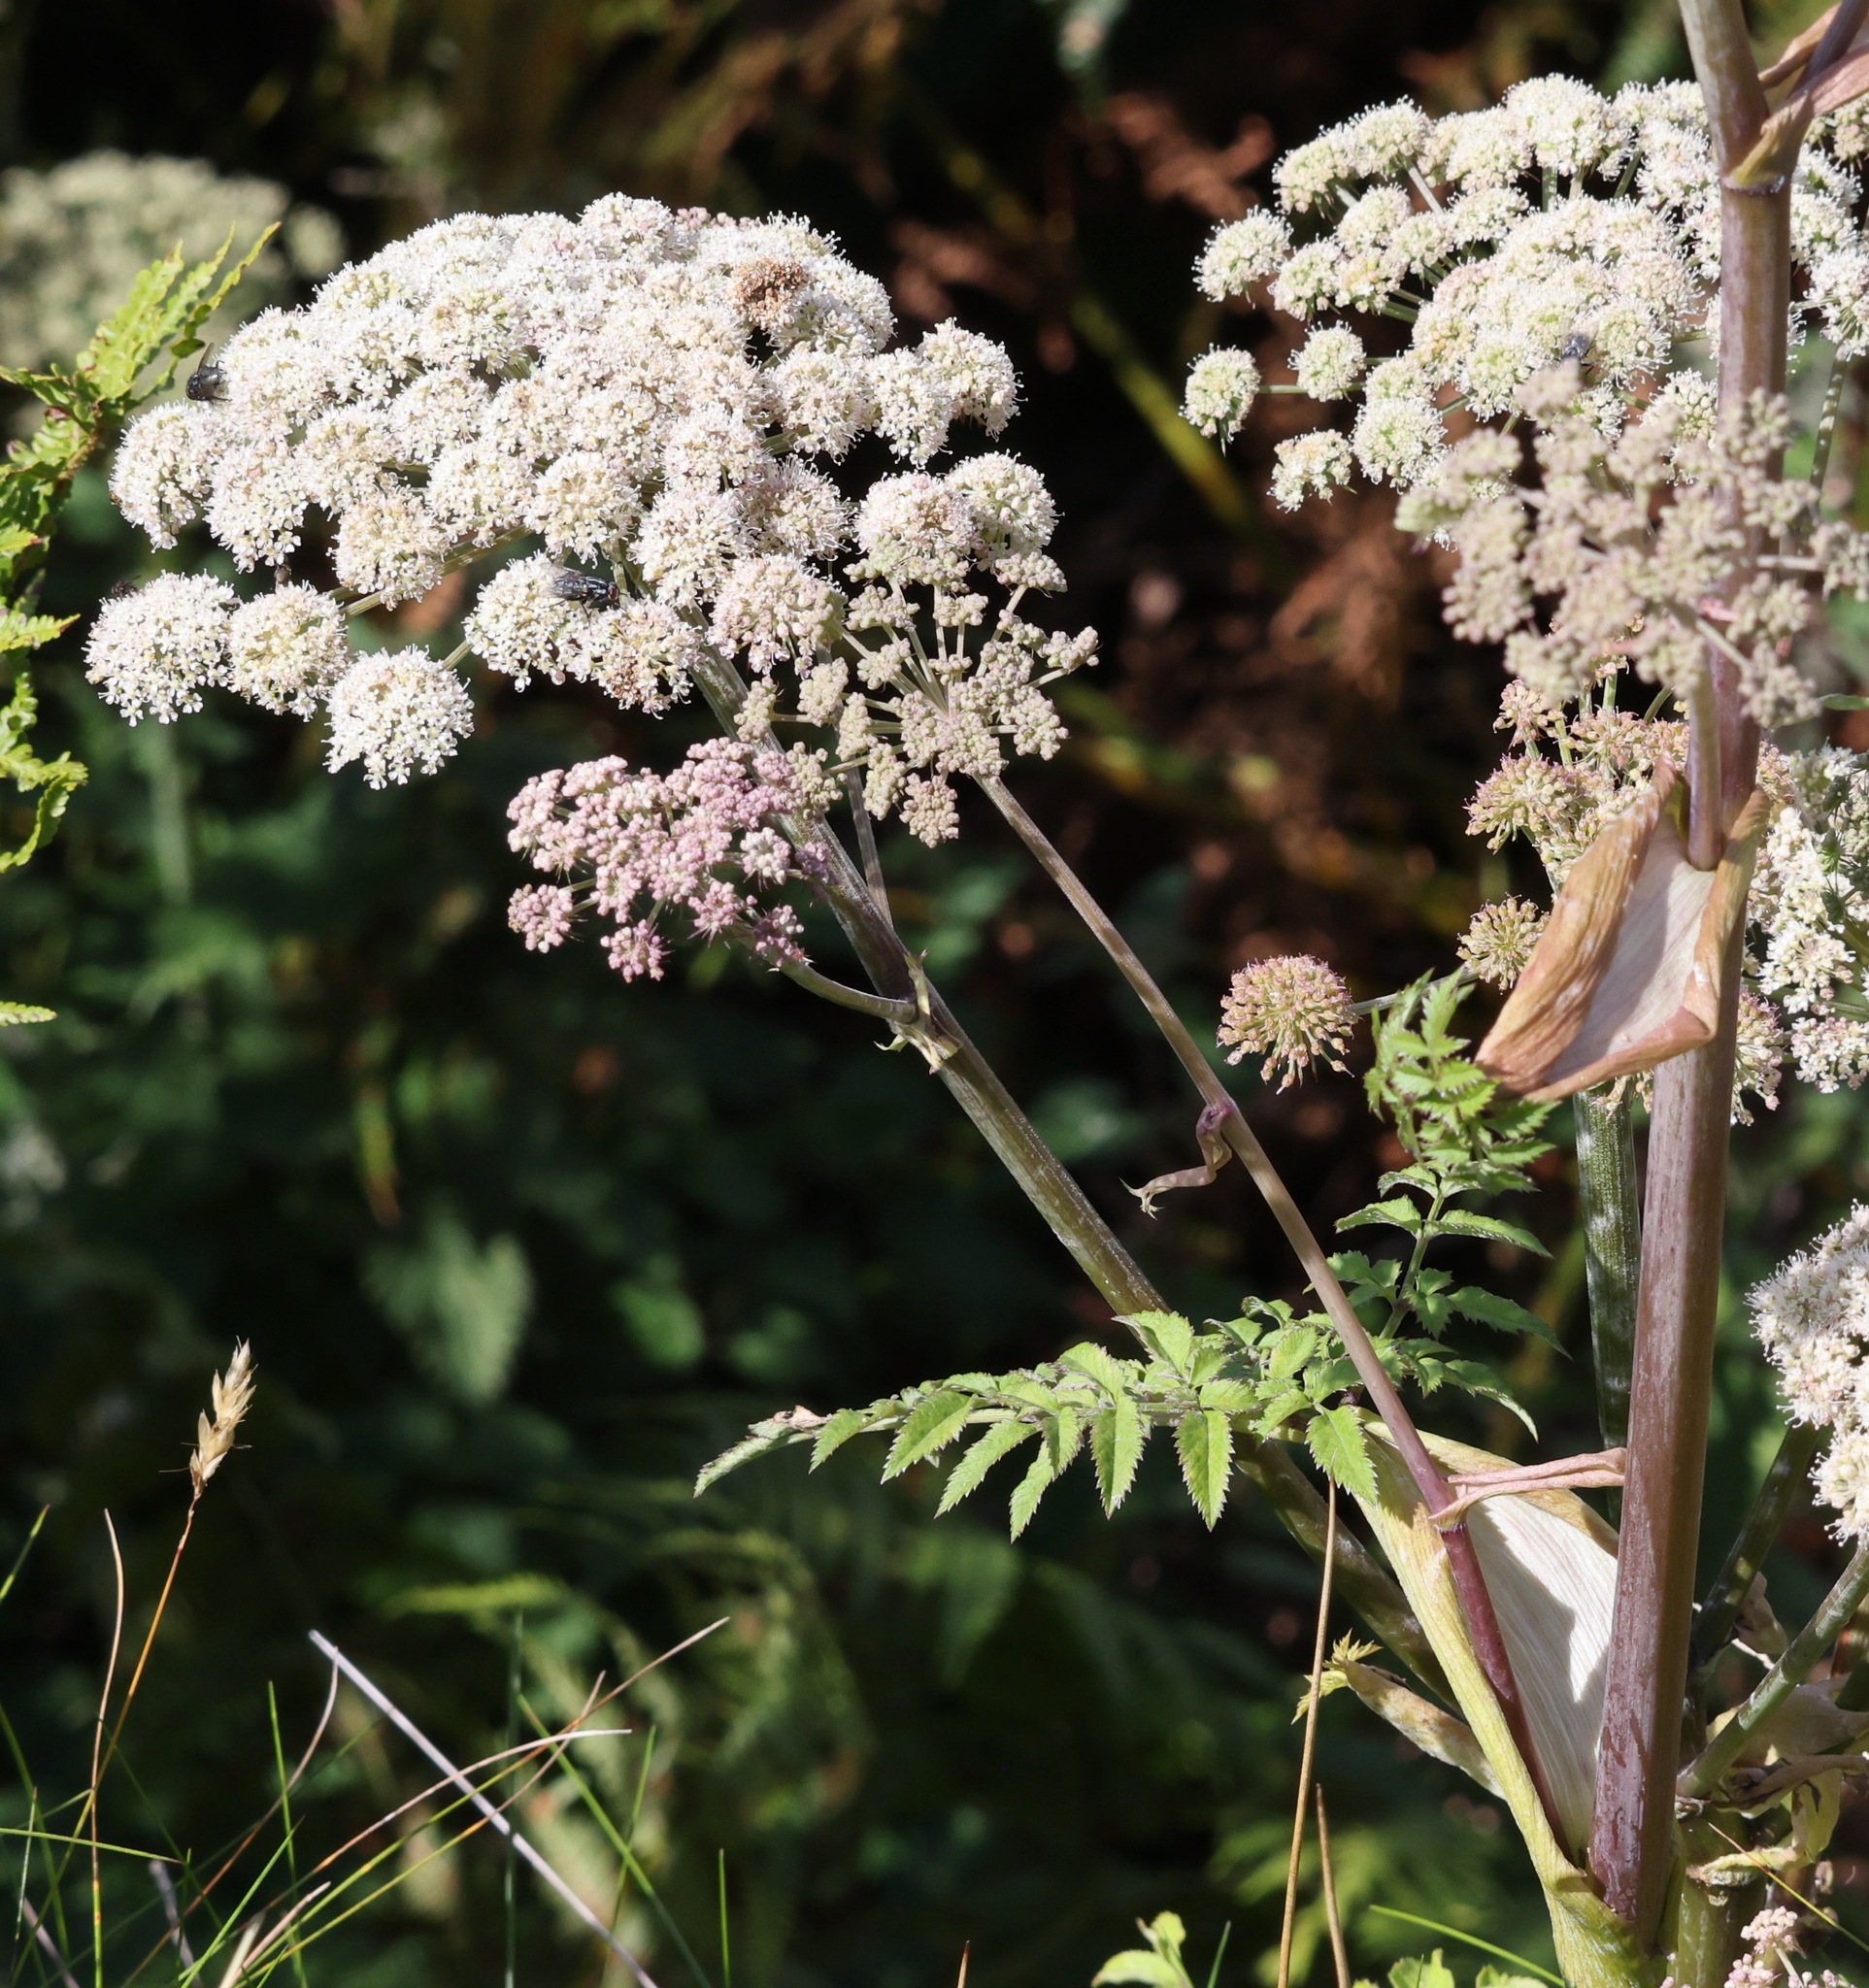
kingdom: Plantae
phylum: Tracheophyta
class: Magnoliopsida
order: Apiales
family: Apiaceae
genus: Angelica
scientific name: Angelica sylvestris
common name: Wild angelica
